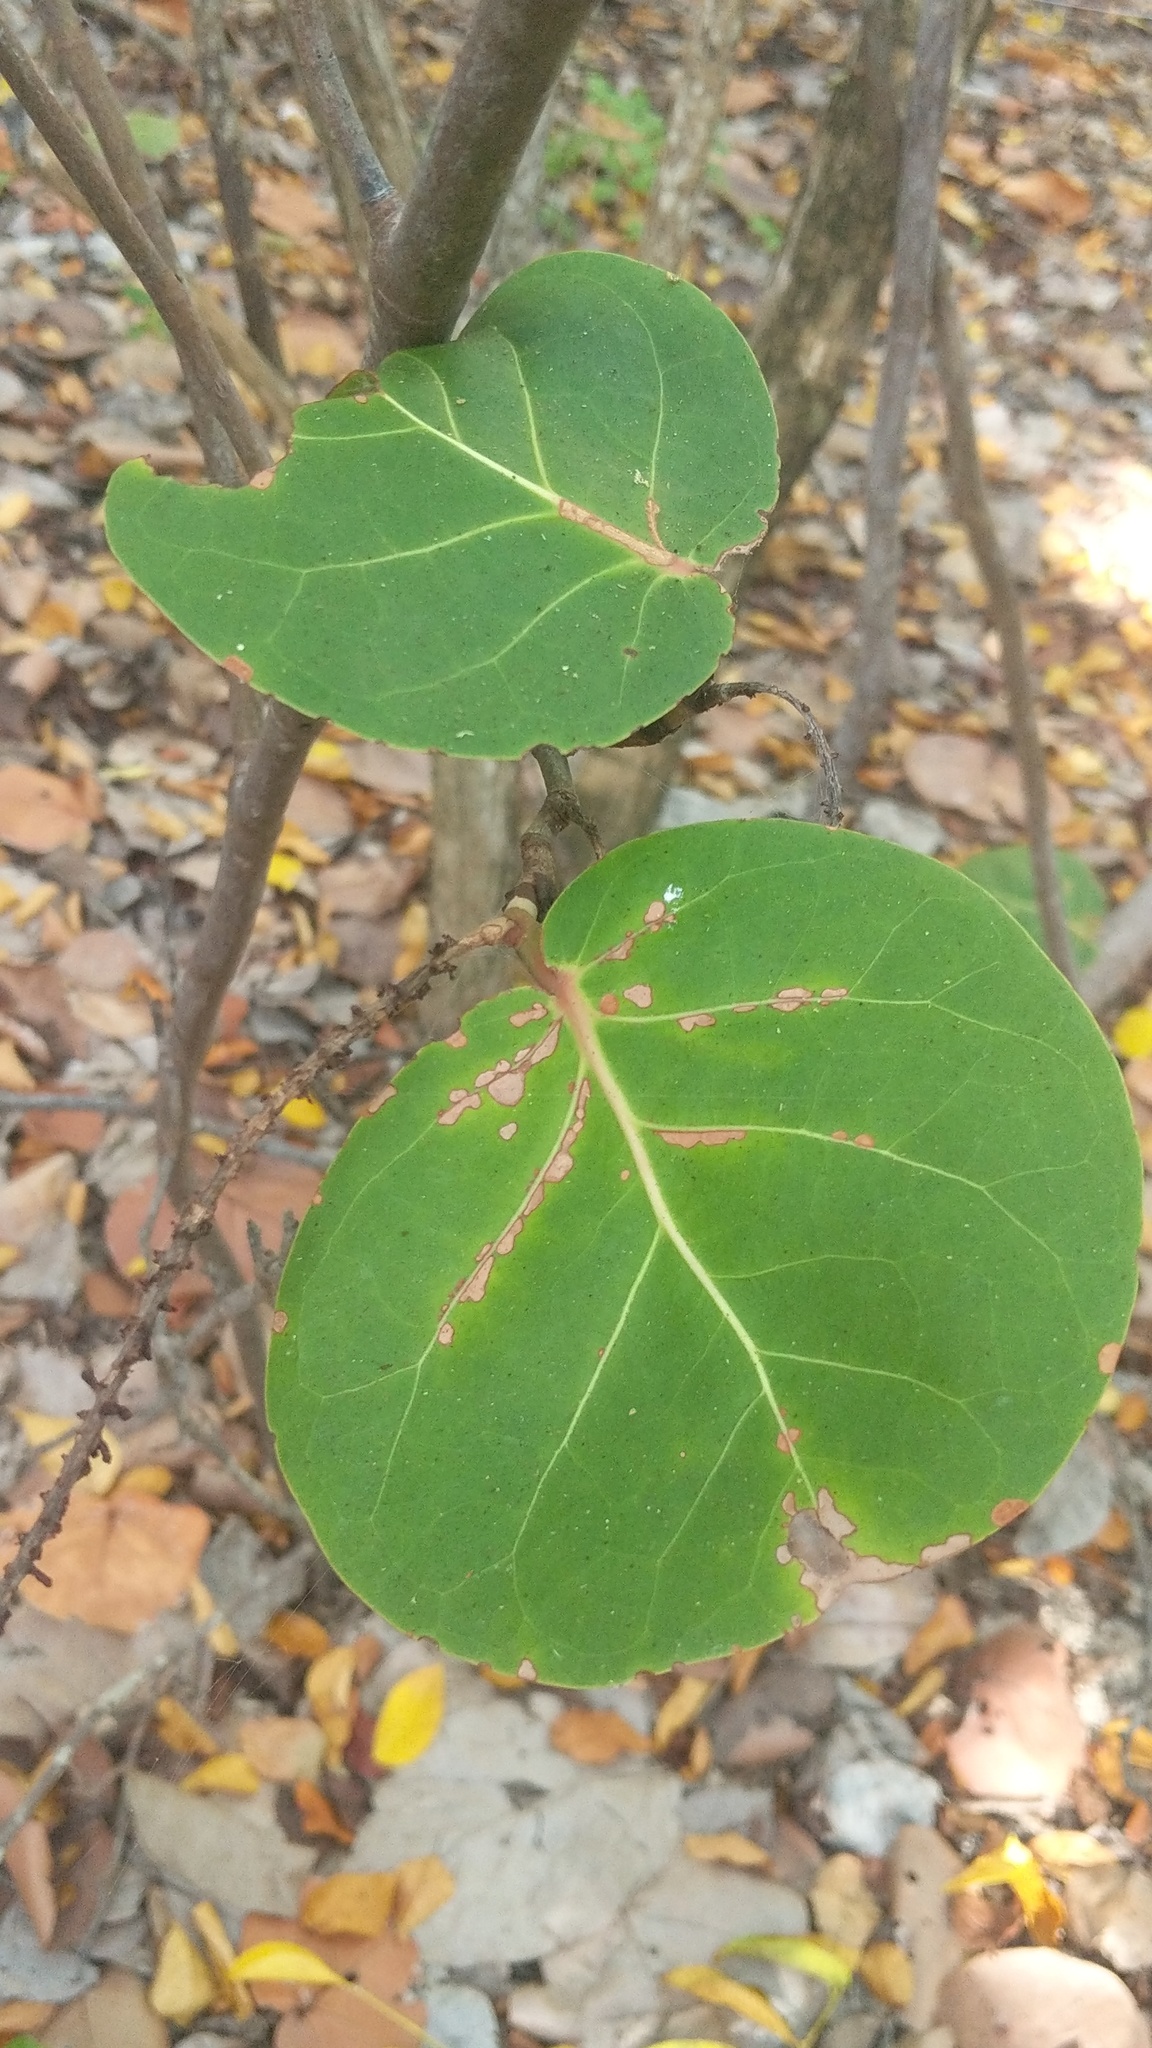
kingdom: Plantae
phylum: Tracheophyta
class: Magnoliopsida
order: Caryophyllales
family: Polygonaceae
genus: Coccoloba
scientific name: Coccoloba uvifera
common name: Seagrape
